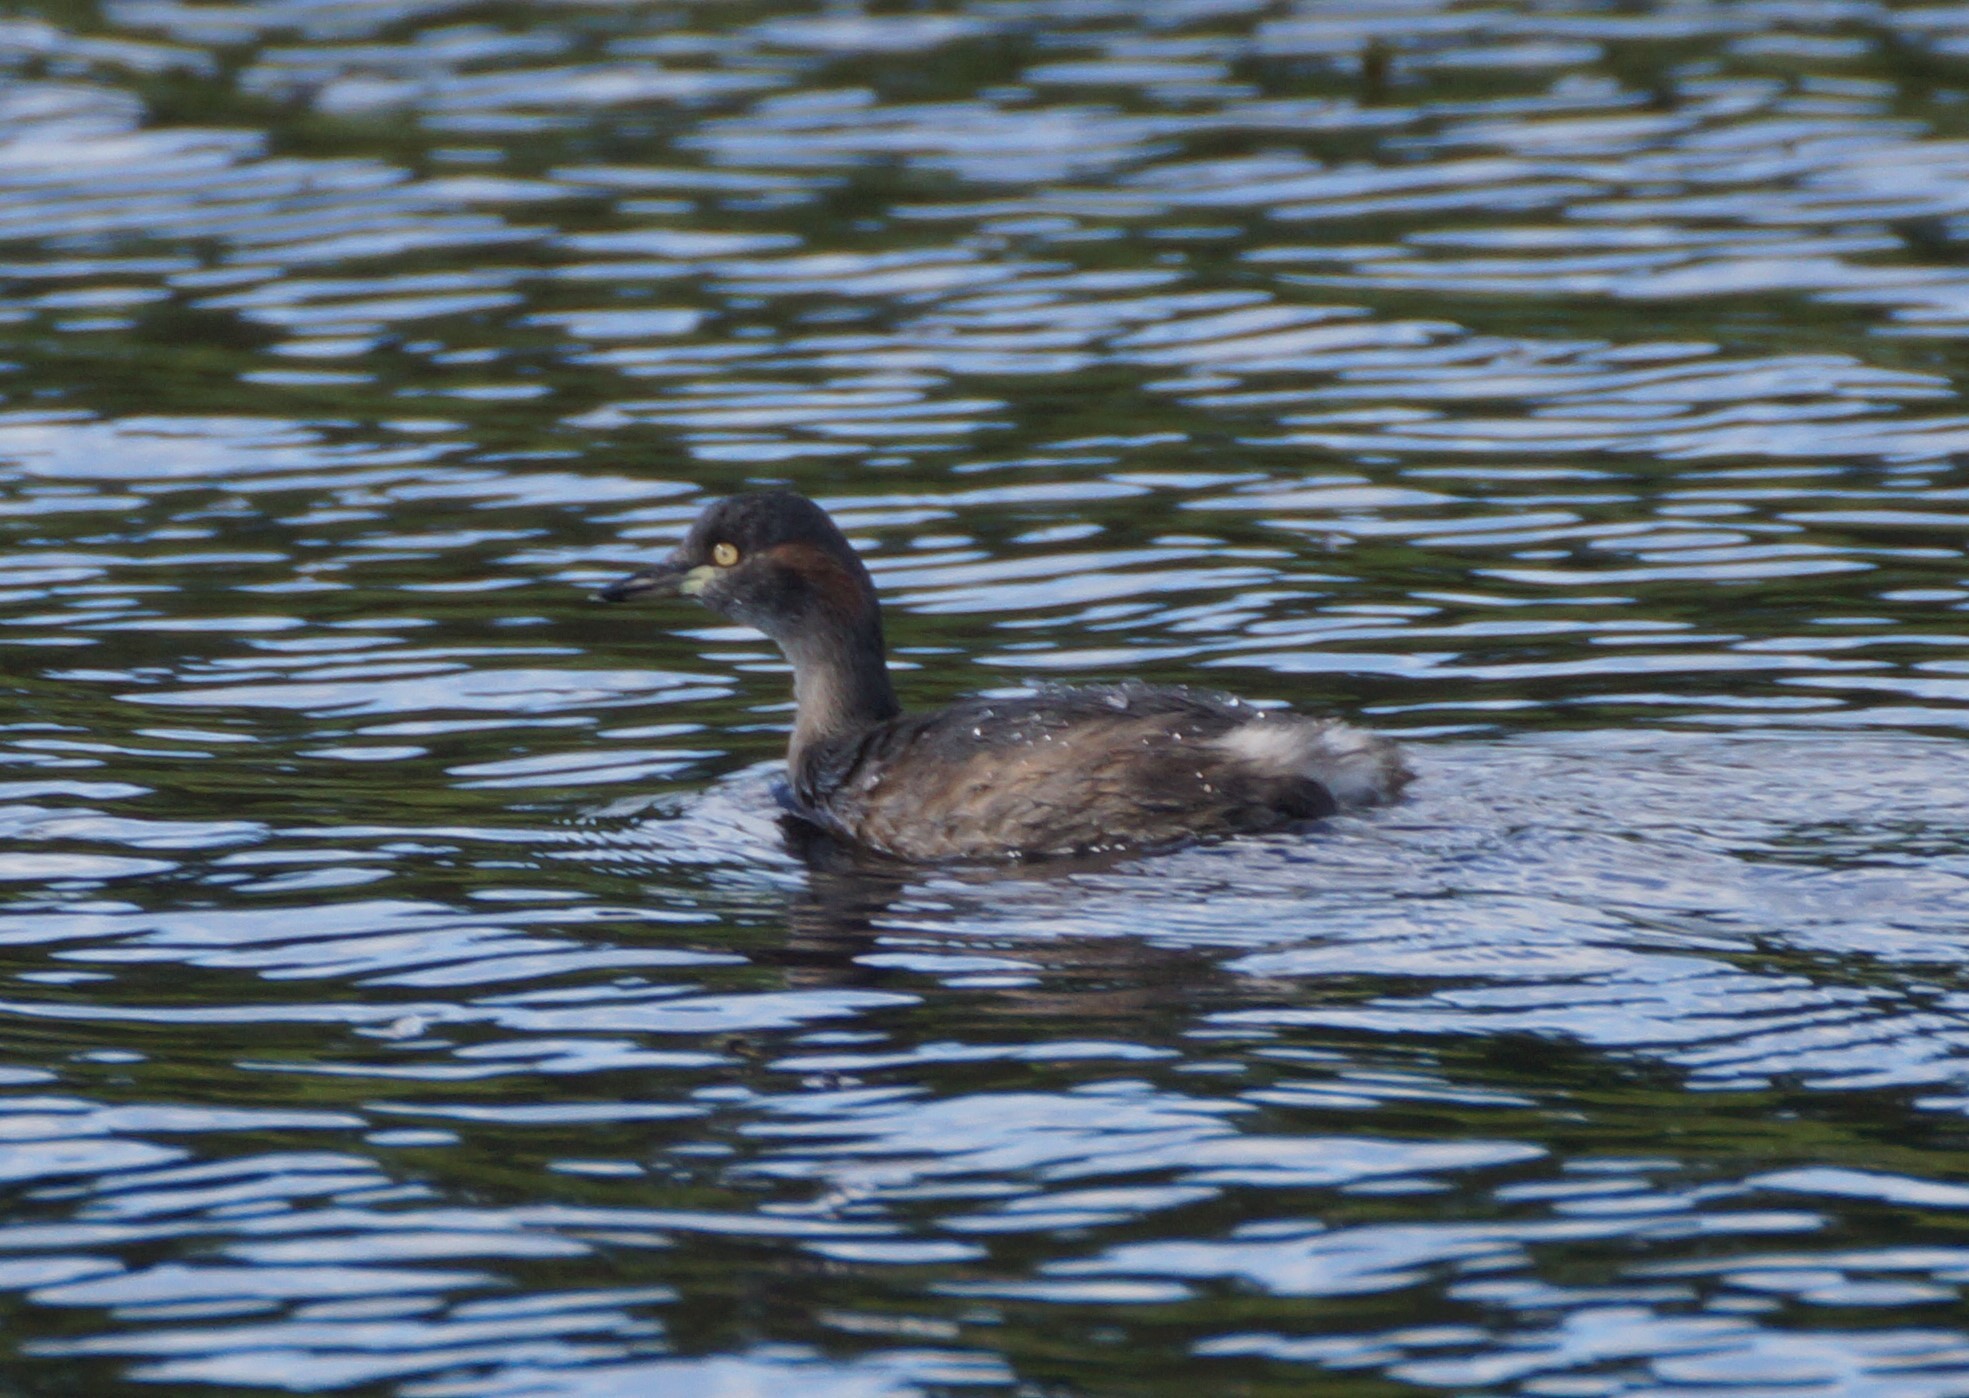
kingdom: Animalia
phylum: Chordata
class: Aves
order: Podicipediformes
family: Podicipedidae
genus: Tachybaptus
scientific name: Tachybaptus novaehollandiae
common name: Australasian grebe
